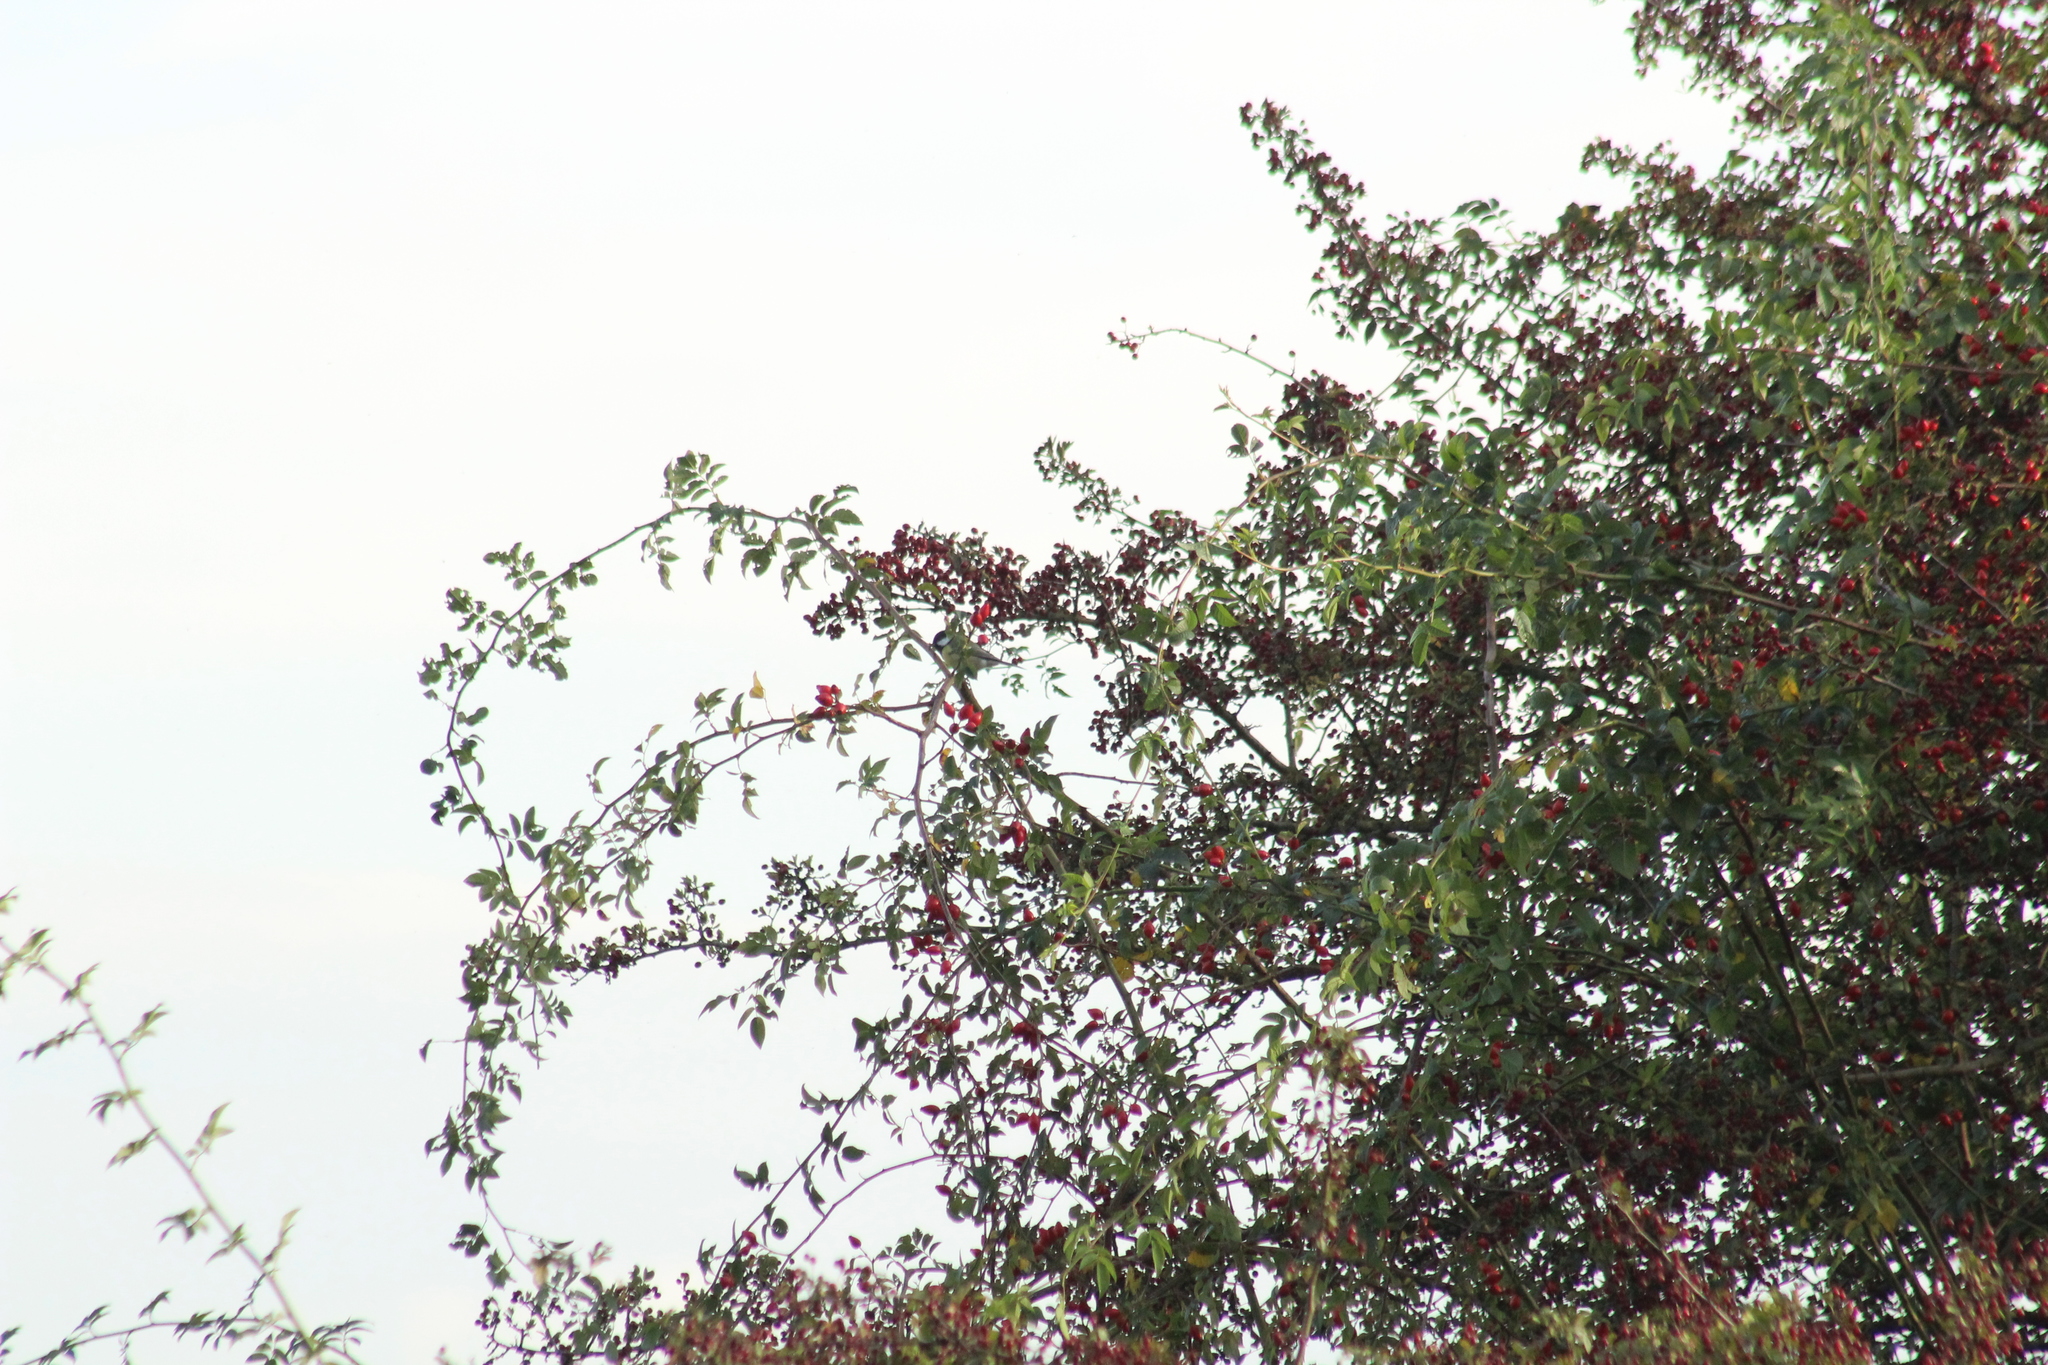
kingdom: Animalia
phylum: Chordata
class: Aves
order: Passeriformes
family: Paridae
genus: Parus
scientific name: Parus major
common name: Great tit
